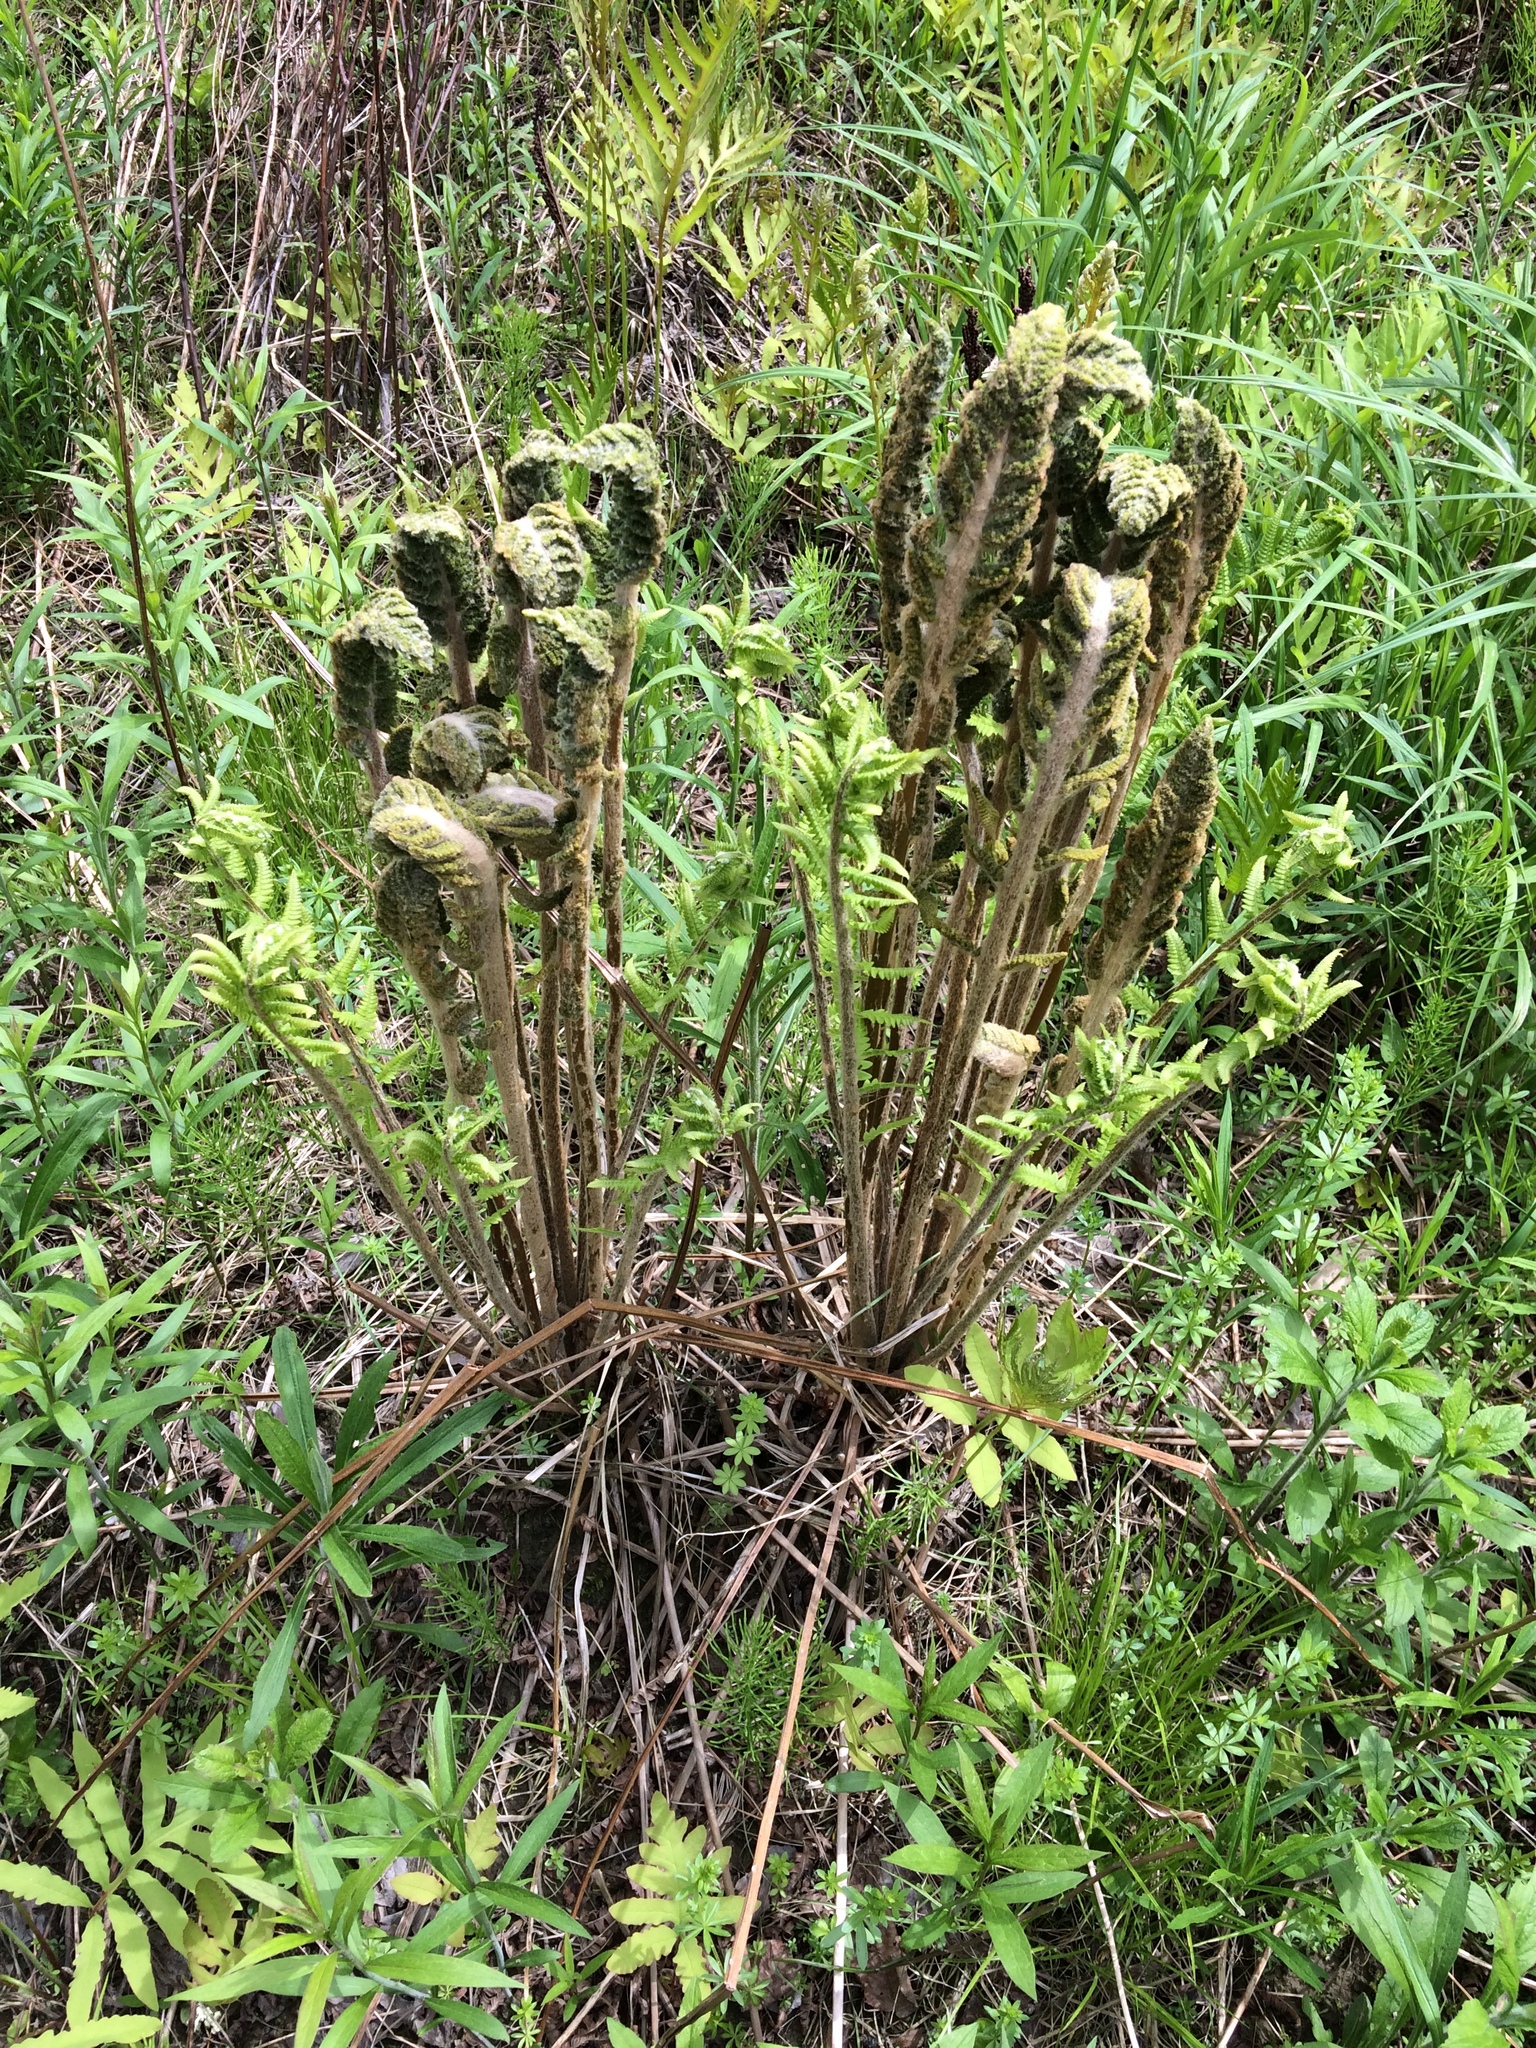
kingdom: Plantae
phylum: Tracheophyta
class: Polypodiopsida
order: Osmundales
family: Osmundaceae
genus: Osmundastrum
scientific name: Osmundastrum cinnamomeum
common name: Cinnamon fern
